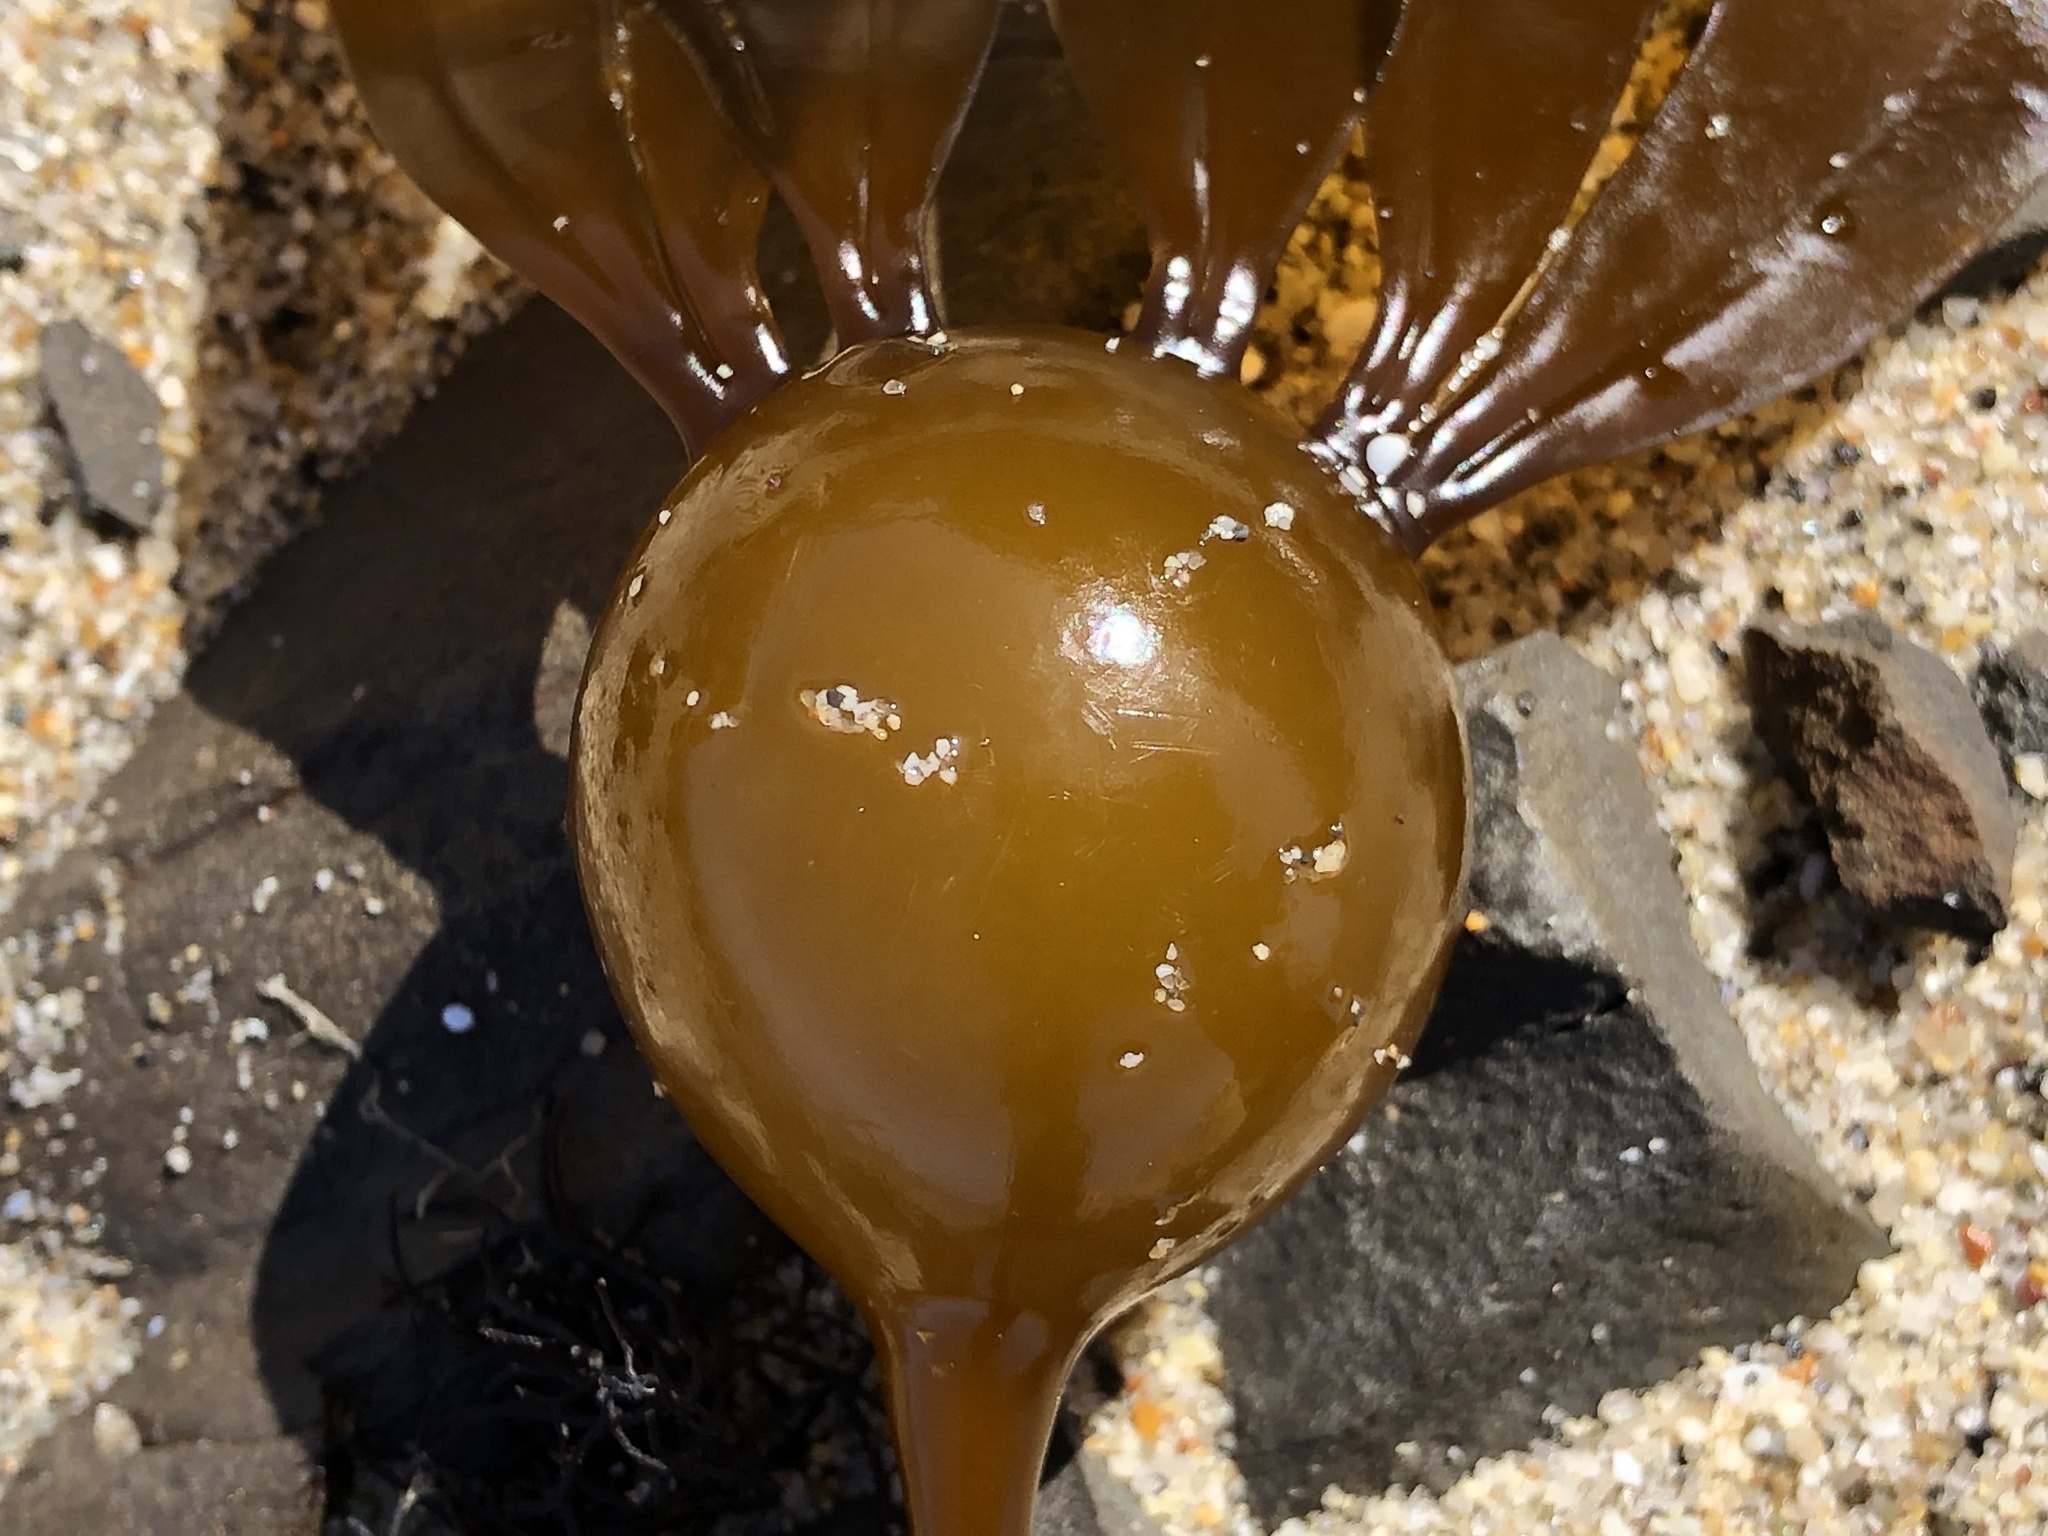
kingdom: Chromista
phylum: Ochrophyta
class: Phaeophyceae
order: Laminariales
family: Laminariaceae
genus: Nereocystis
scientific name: Nereocystis luetkeana
